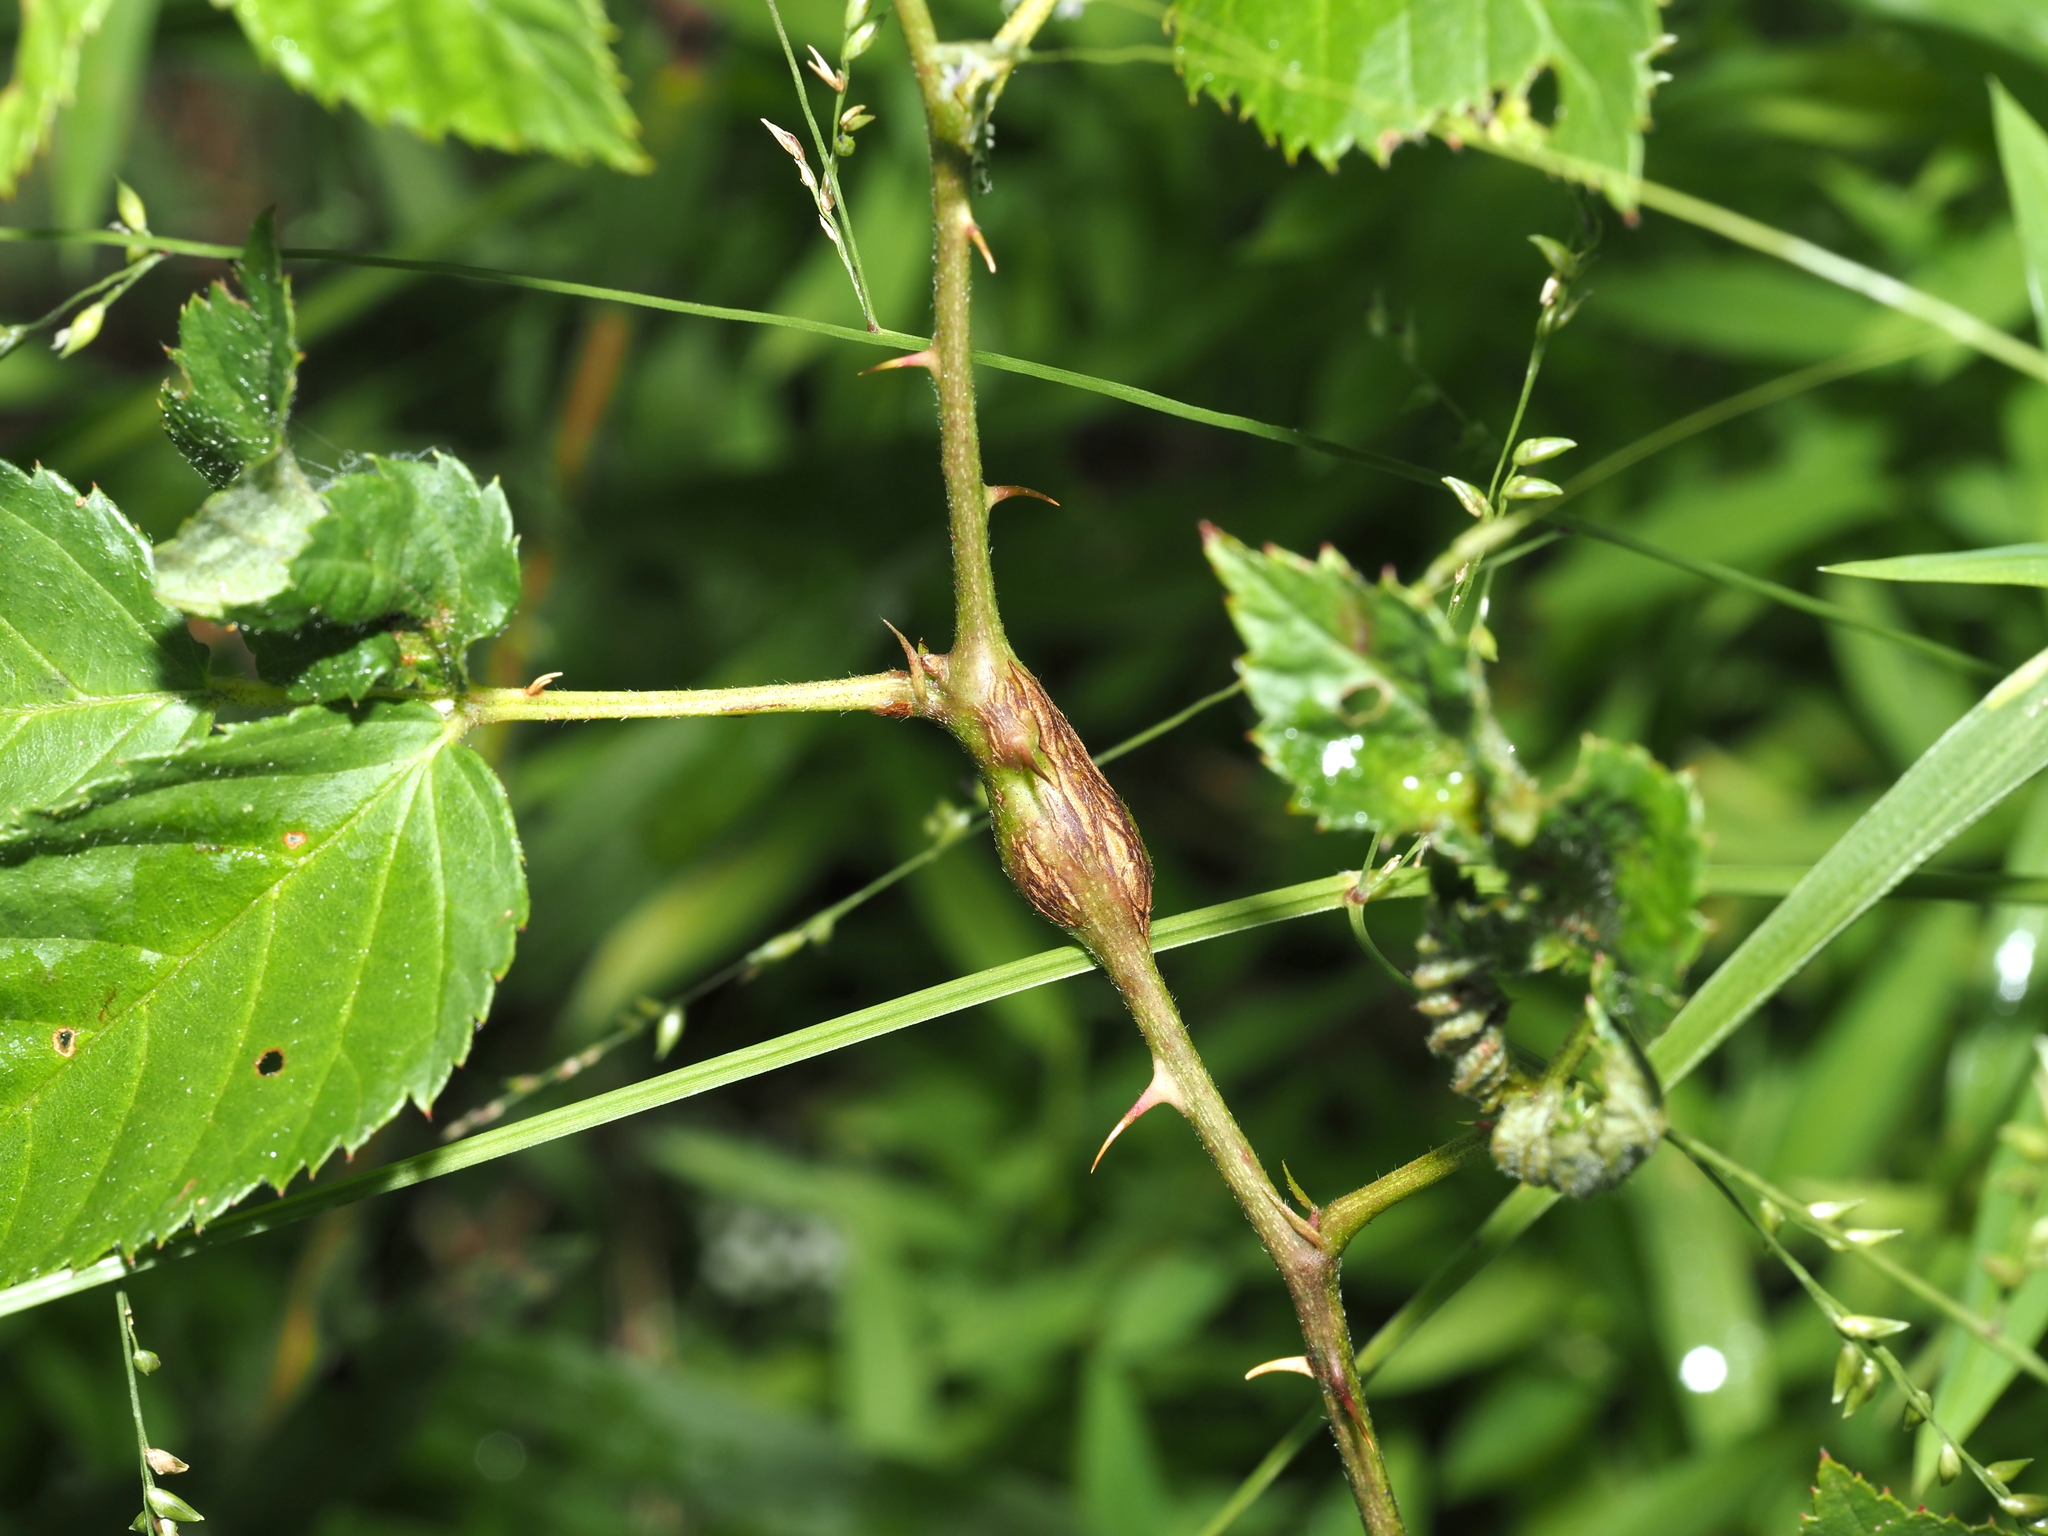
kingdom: Animalia
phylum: Arthropoda
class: Insecta
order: Diptera
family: Cecidomyiidae
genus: Neolasioptera
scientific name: Neolasioptera nodulosa
